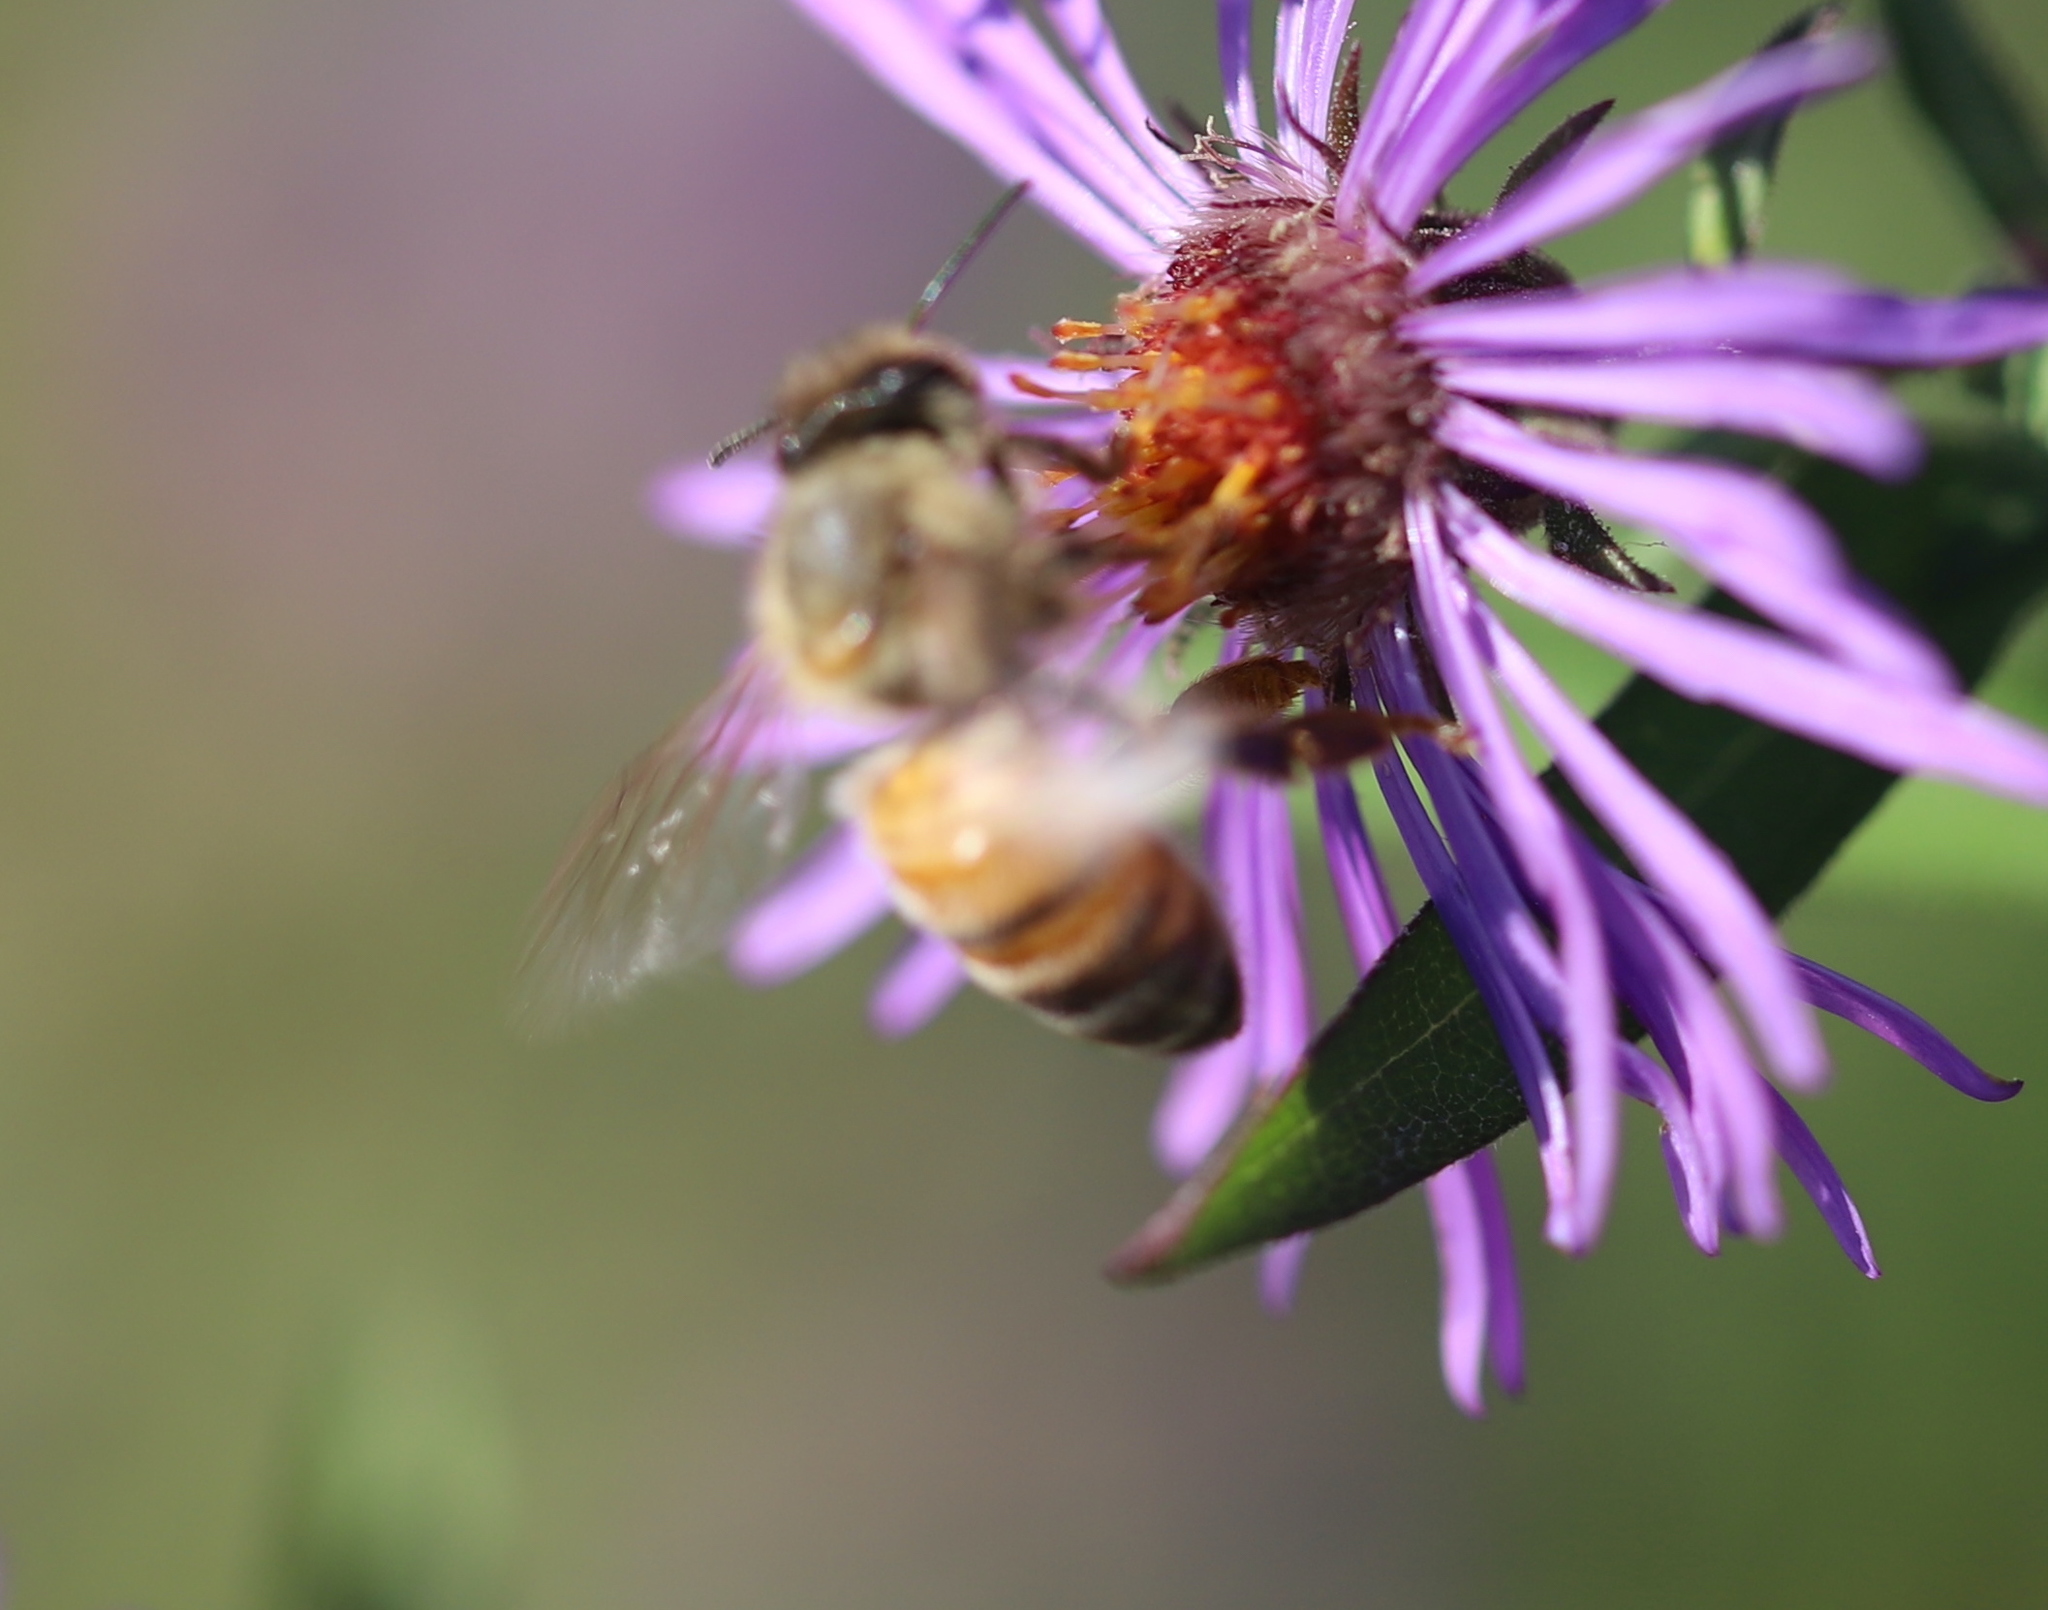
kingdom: Animalia
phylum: Arthropoda
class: Insecta
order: Hymenoptera
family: Apidae
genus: Apis
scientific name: Apis mellifera
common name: Honey bee
